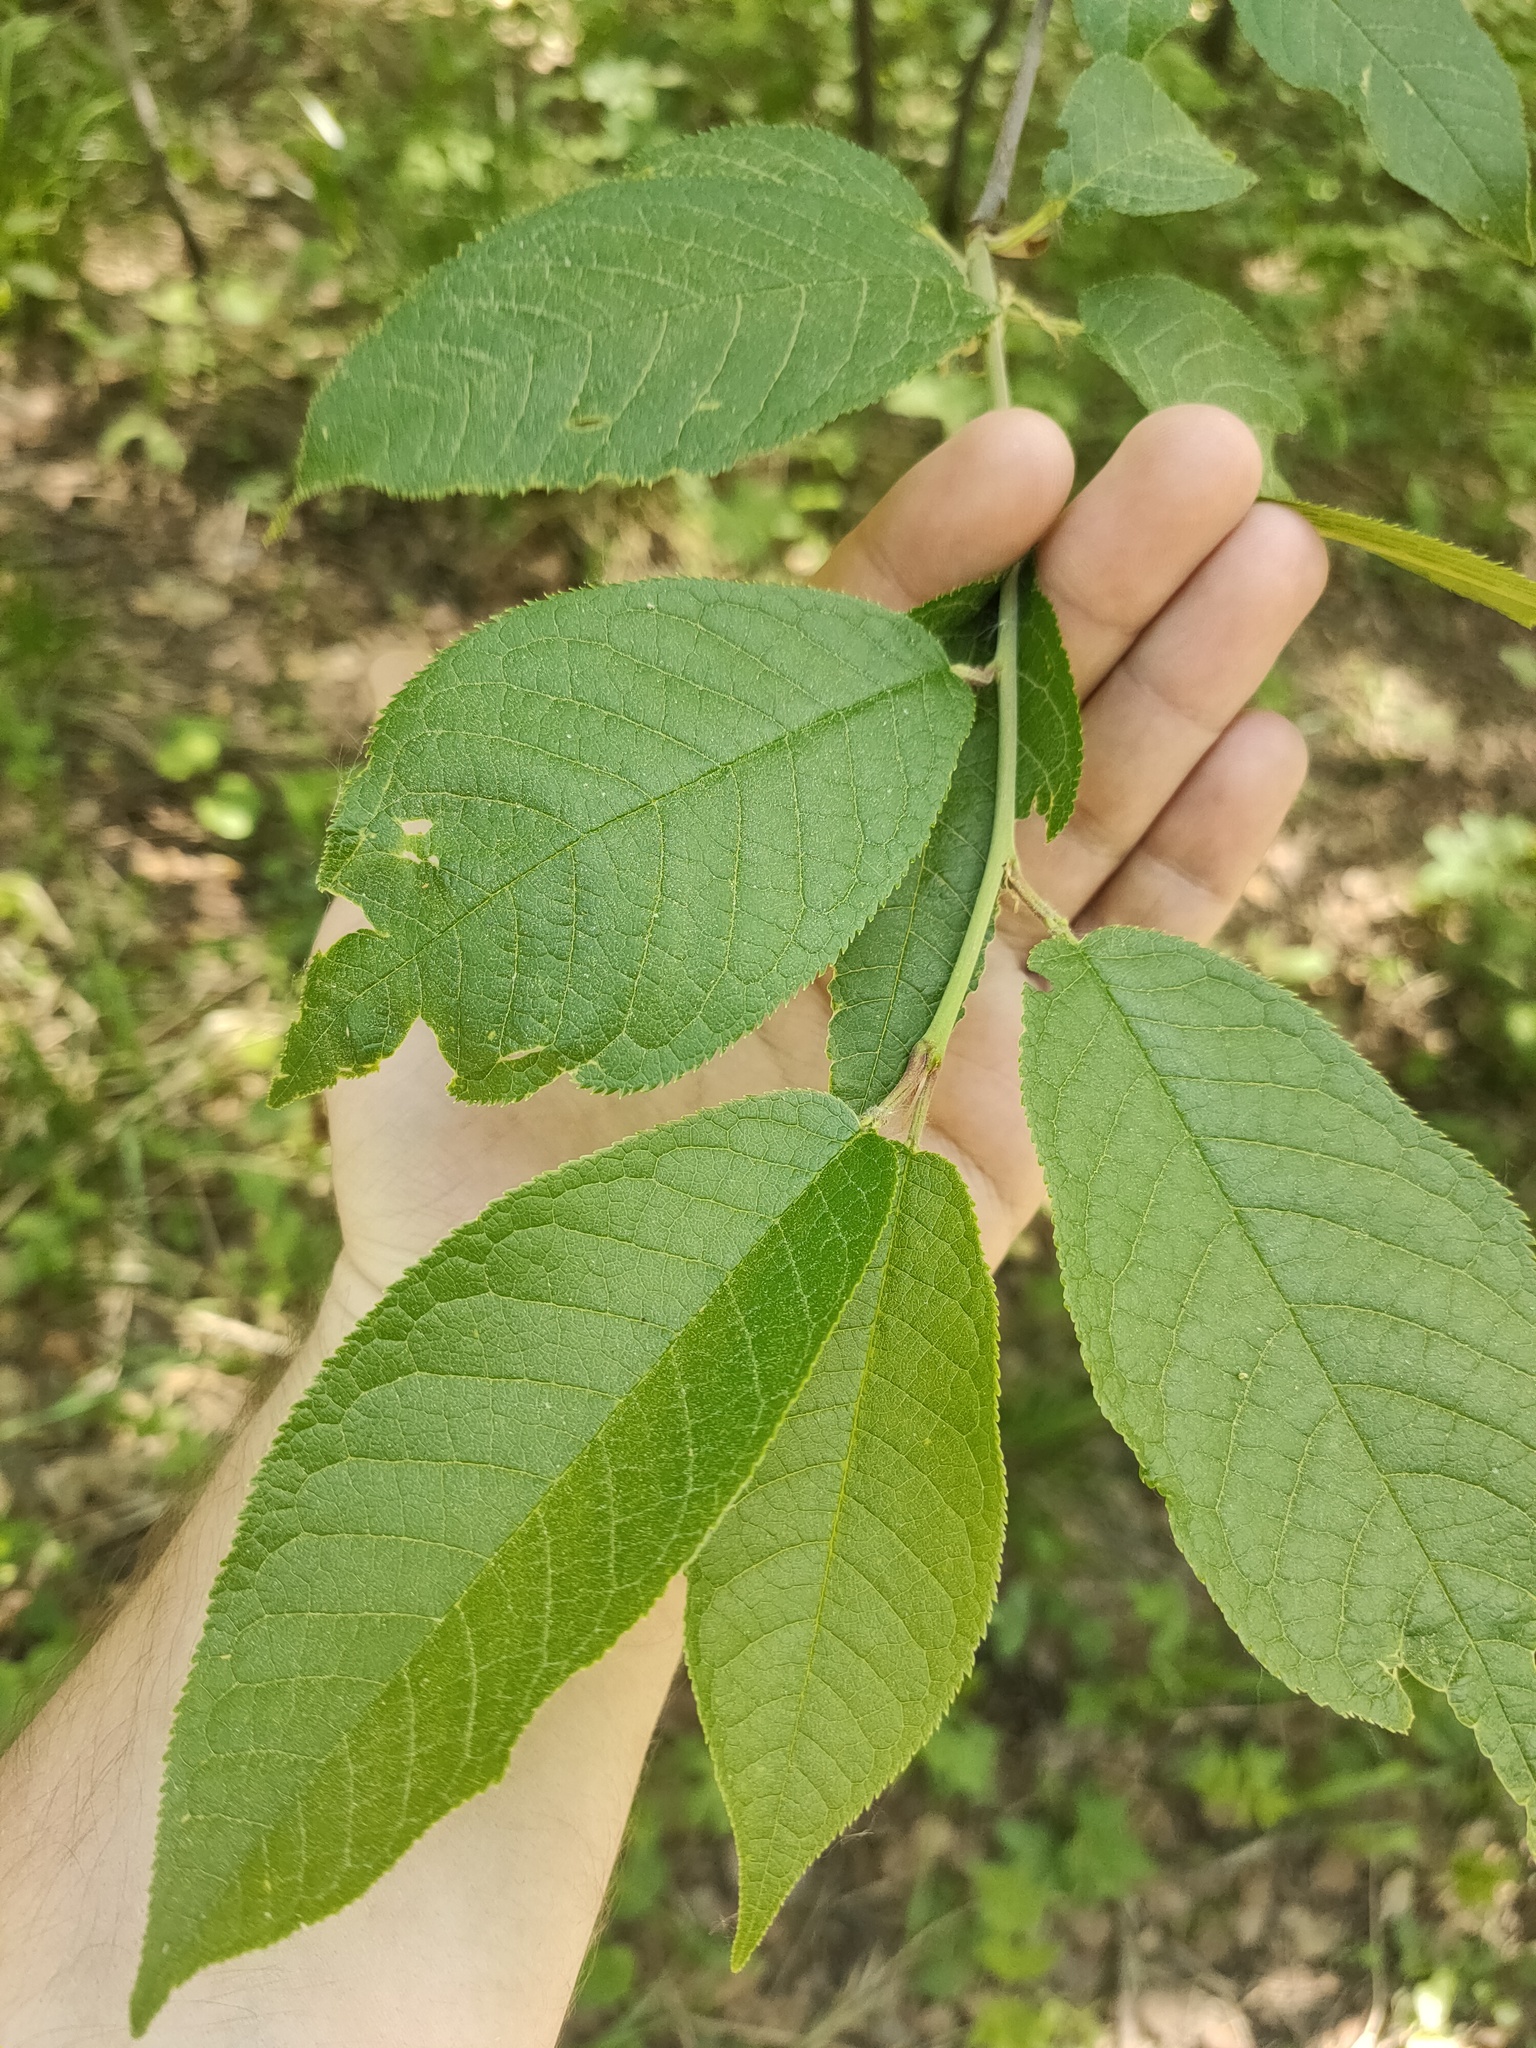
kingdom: Plantae
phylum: Tracheophyta
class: Magnoliopsida
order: Rosales
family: Rosaceae
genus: Prunus
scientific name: Prunus padus
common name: Bird cherry
